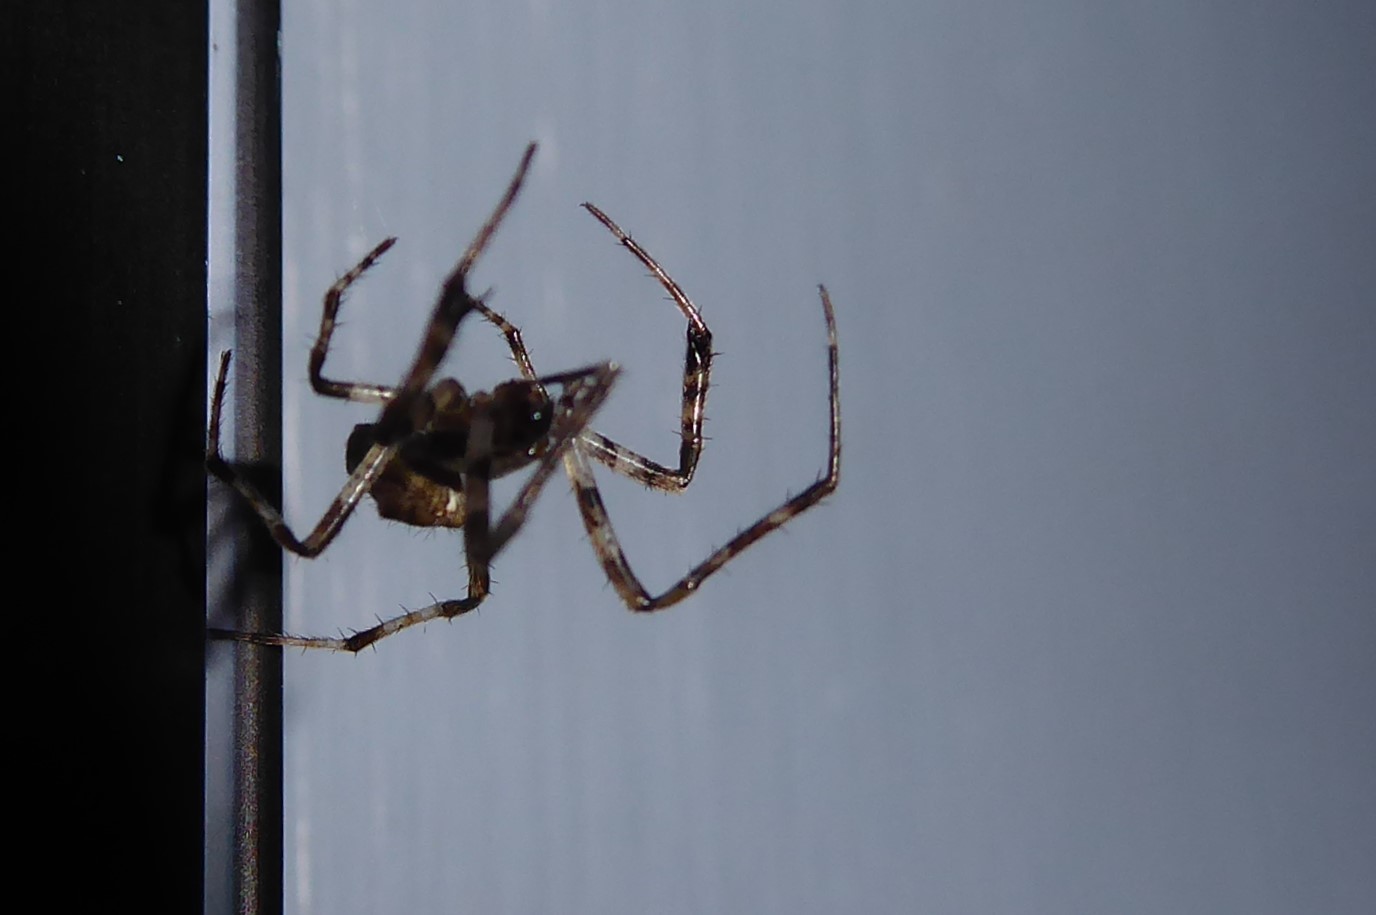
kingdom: Animalia
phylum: Arthropoda
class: Arachnida
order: Araneae
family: Araneidae
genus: Novakiella
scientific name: Novakiella trituberculosa
